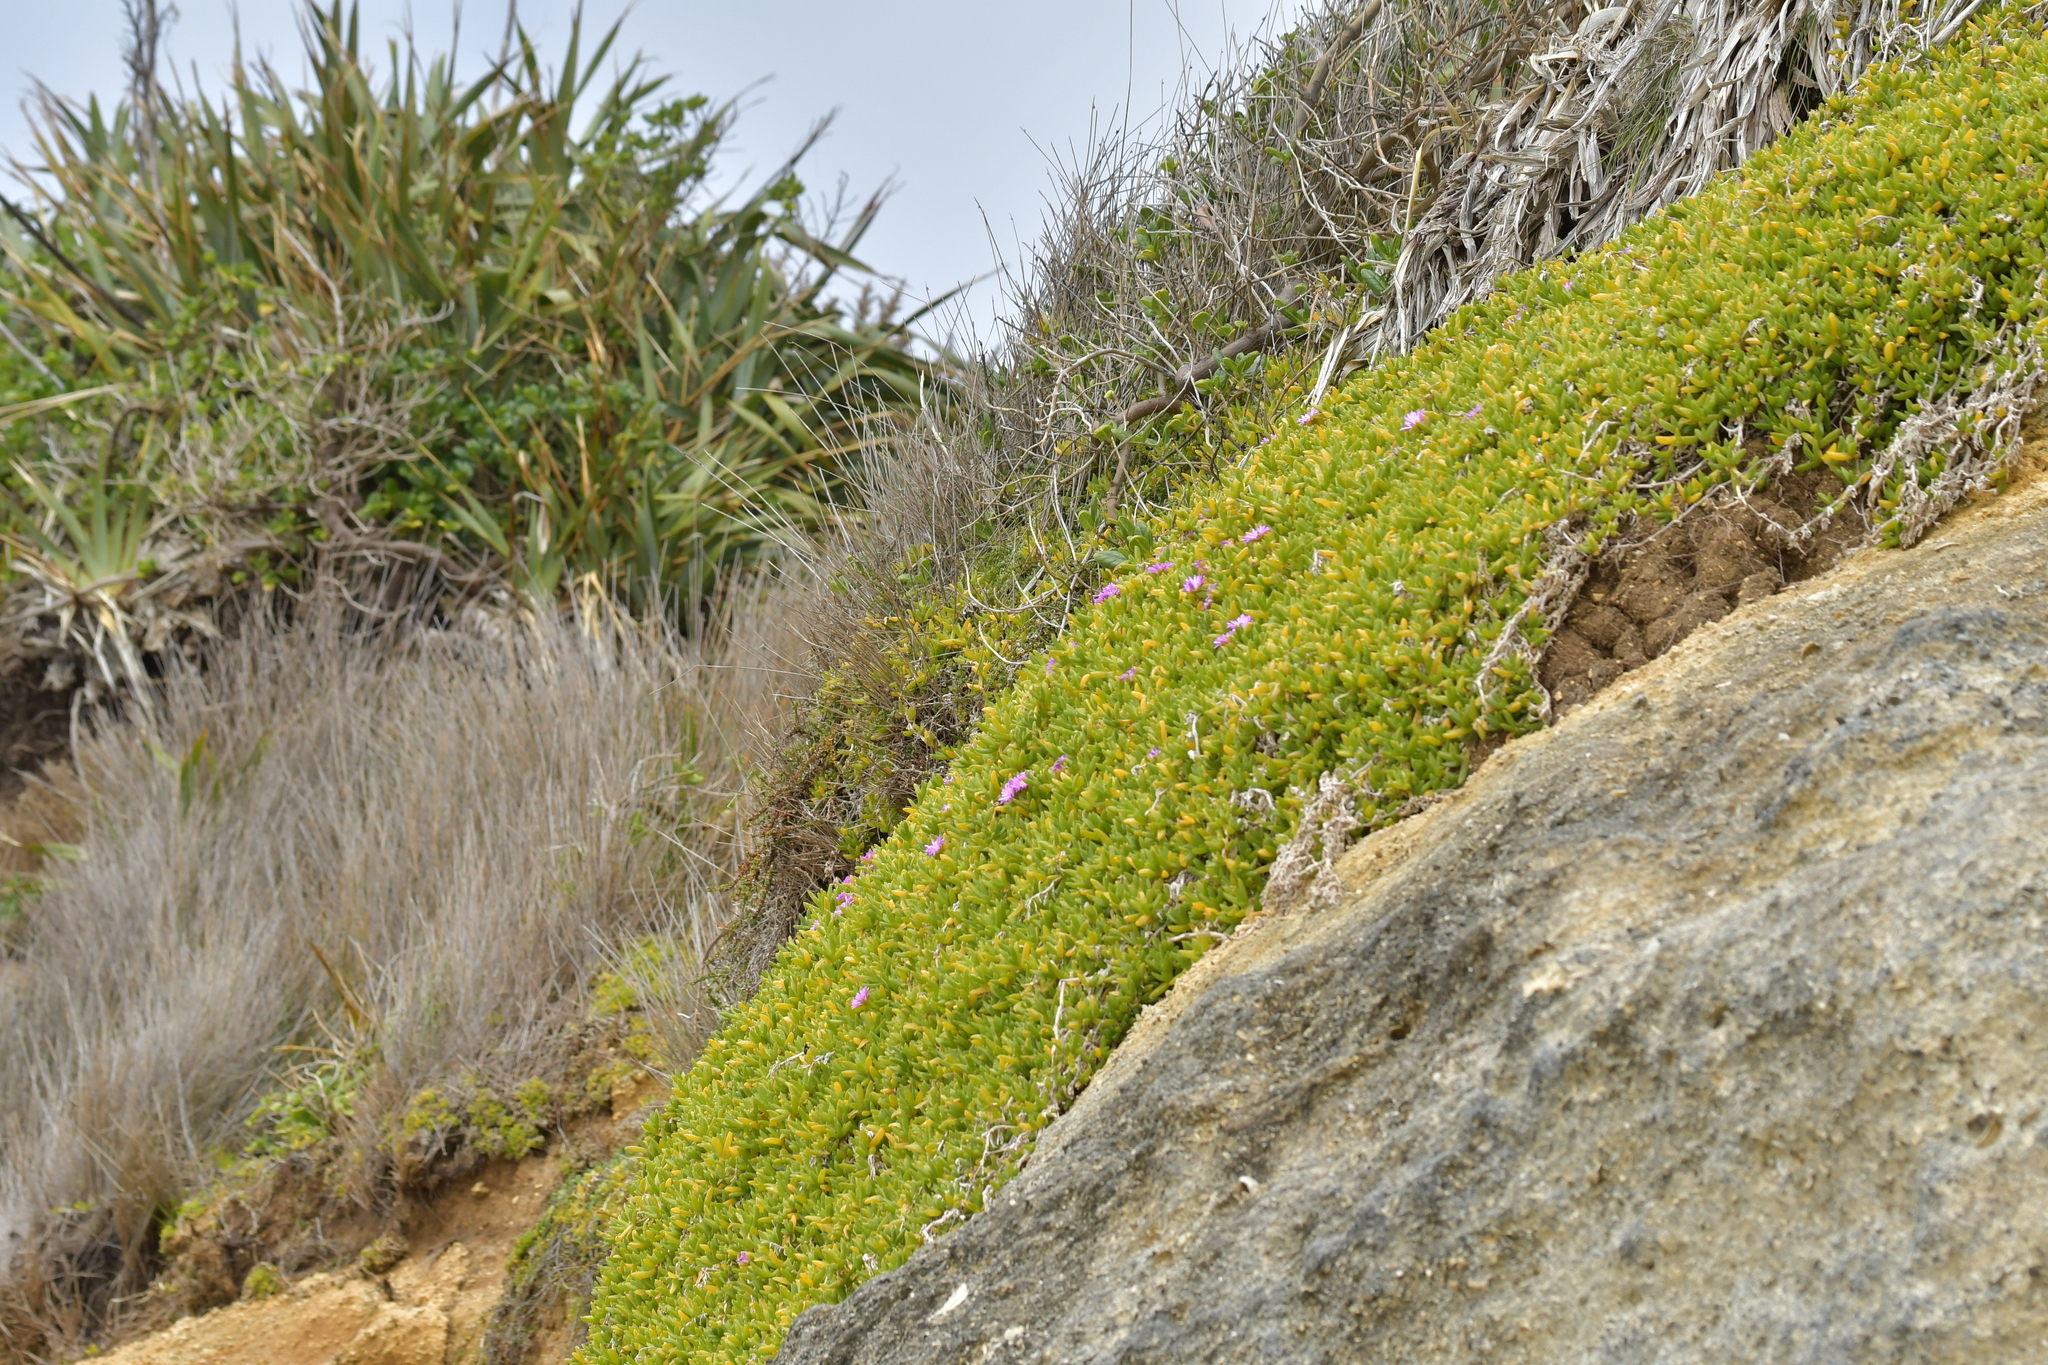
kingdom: Plantae
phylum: Tracheophyta
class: Magnoliopsida
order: Caryophyllales
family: Aizoaceae
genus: Disphyma
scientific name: Disphyma papillatum
